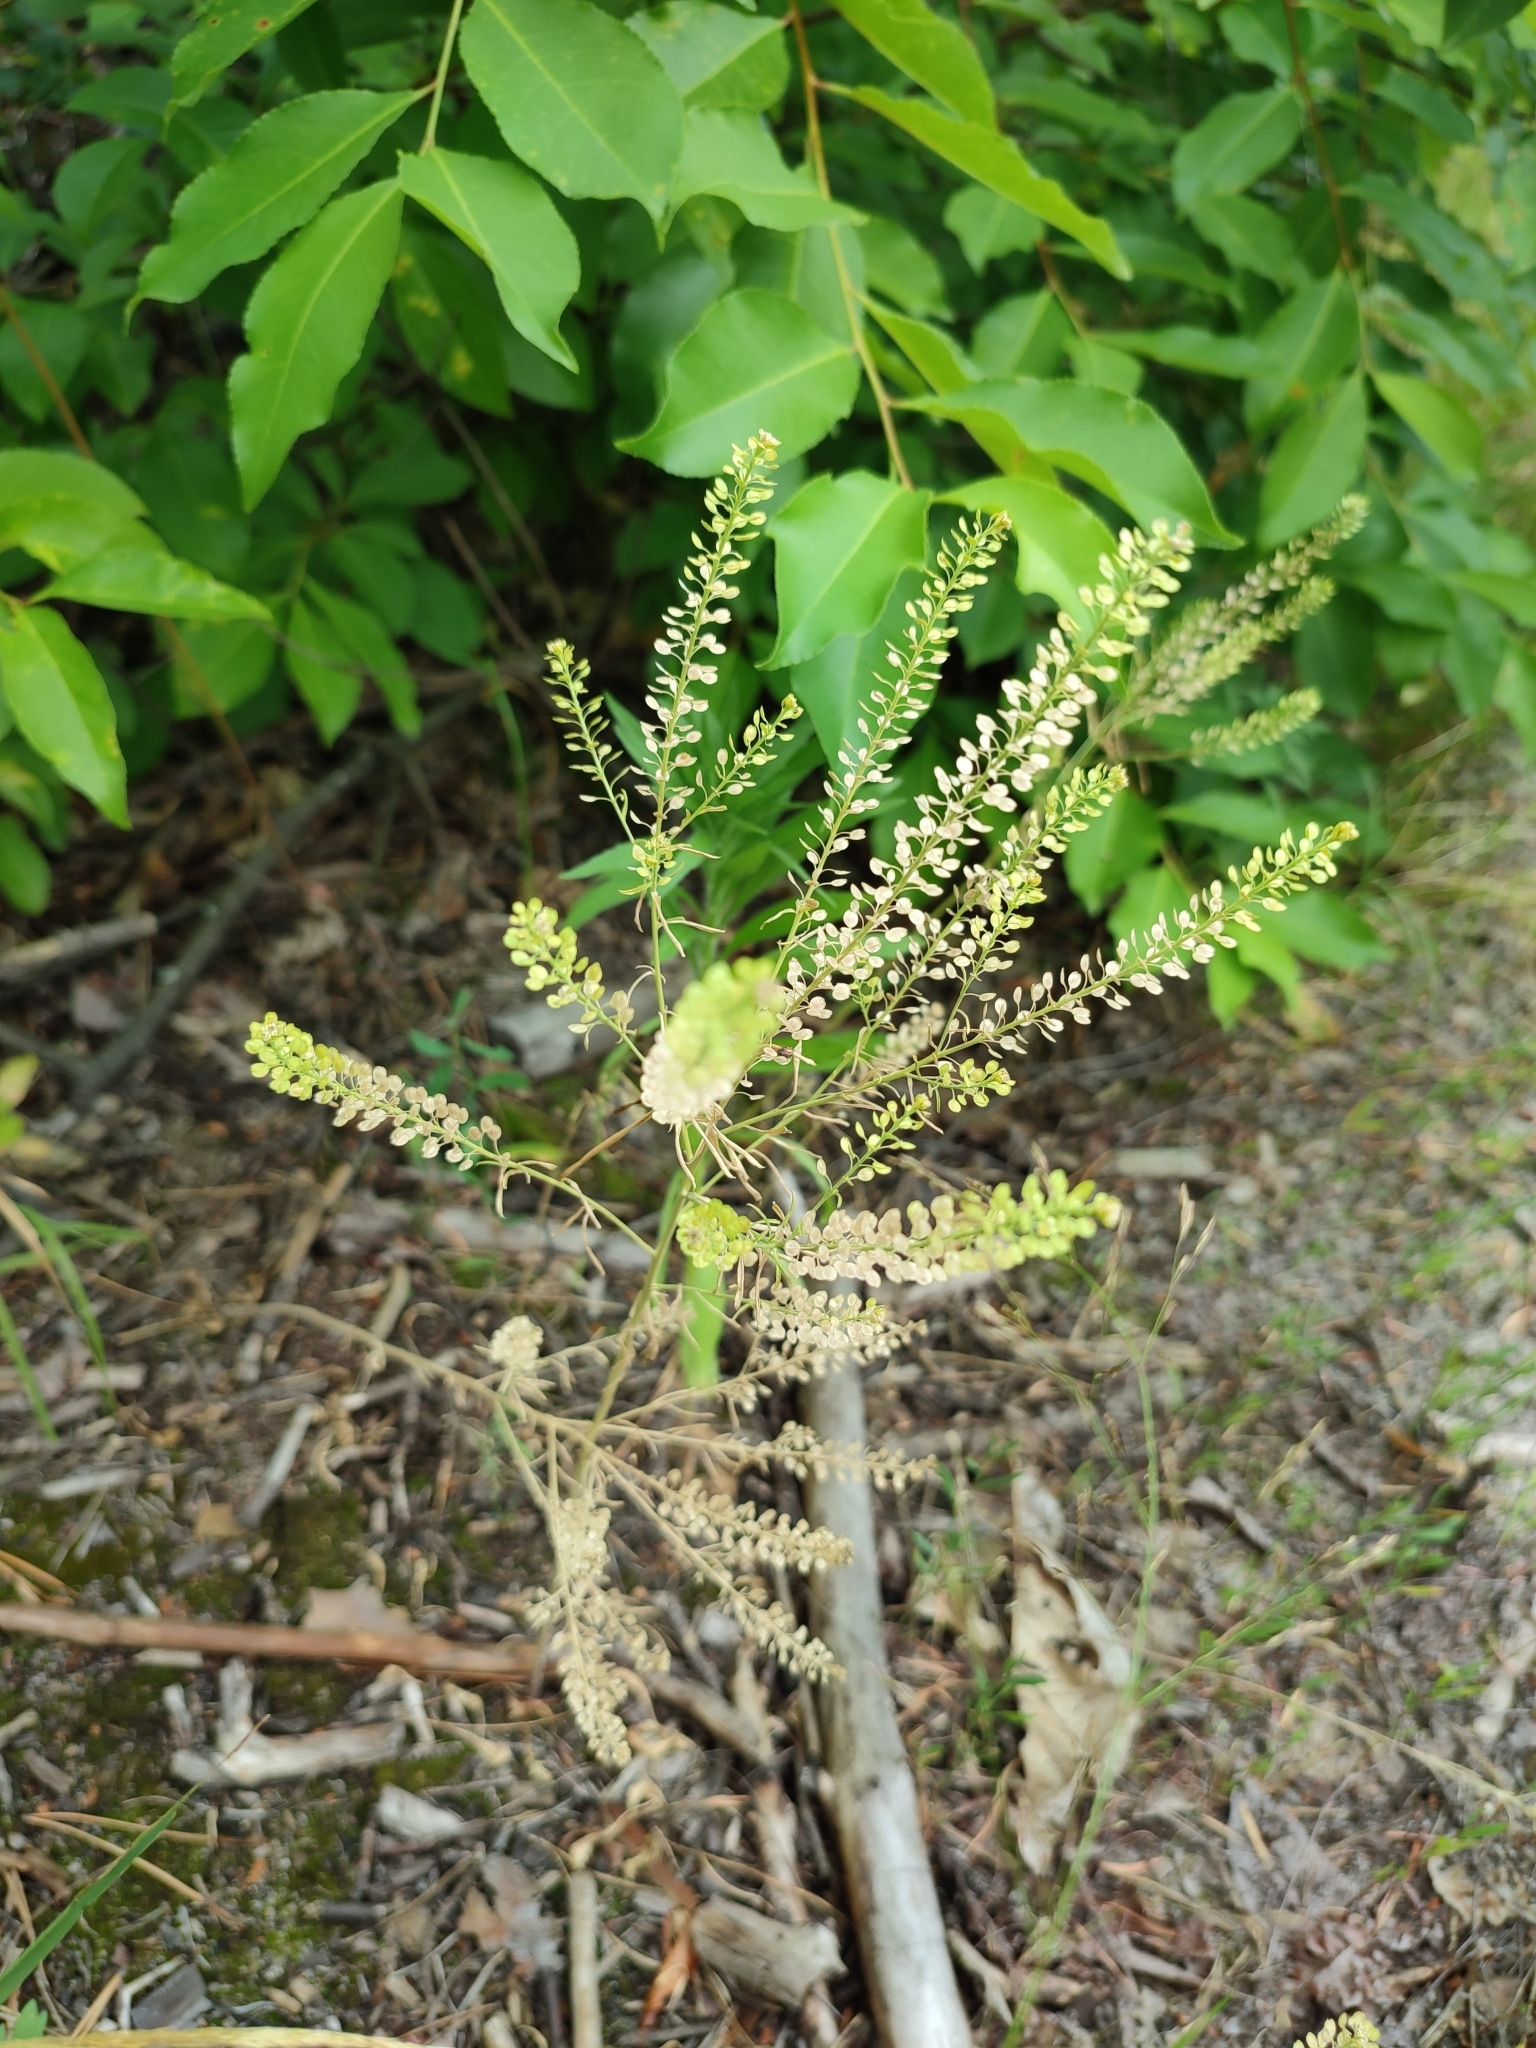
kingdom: Plantae
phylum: Tracheophyta
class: Magnoliopsida
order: Brassicales
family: Brassicaceae
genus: Lepidium
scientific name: Lepidium densiflorum
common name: Miner's pepperwort
